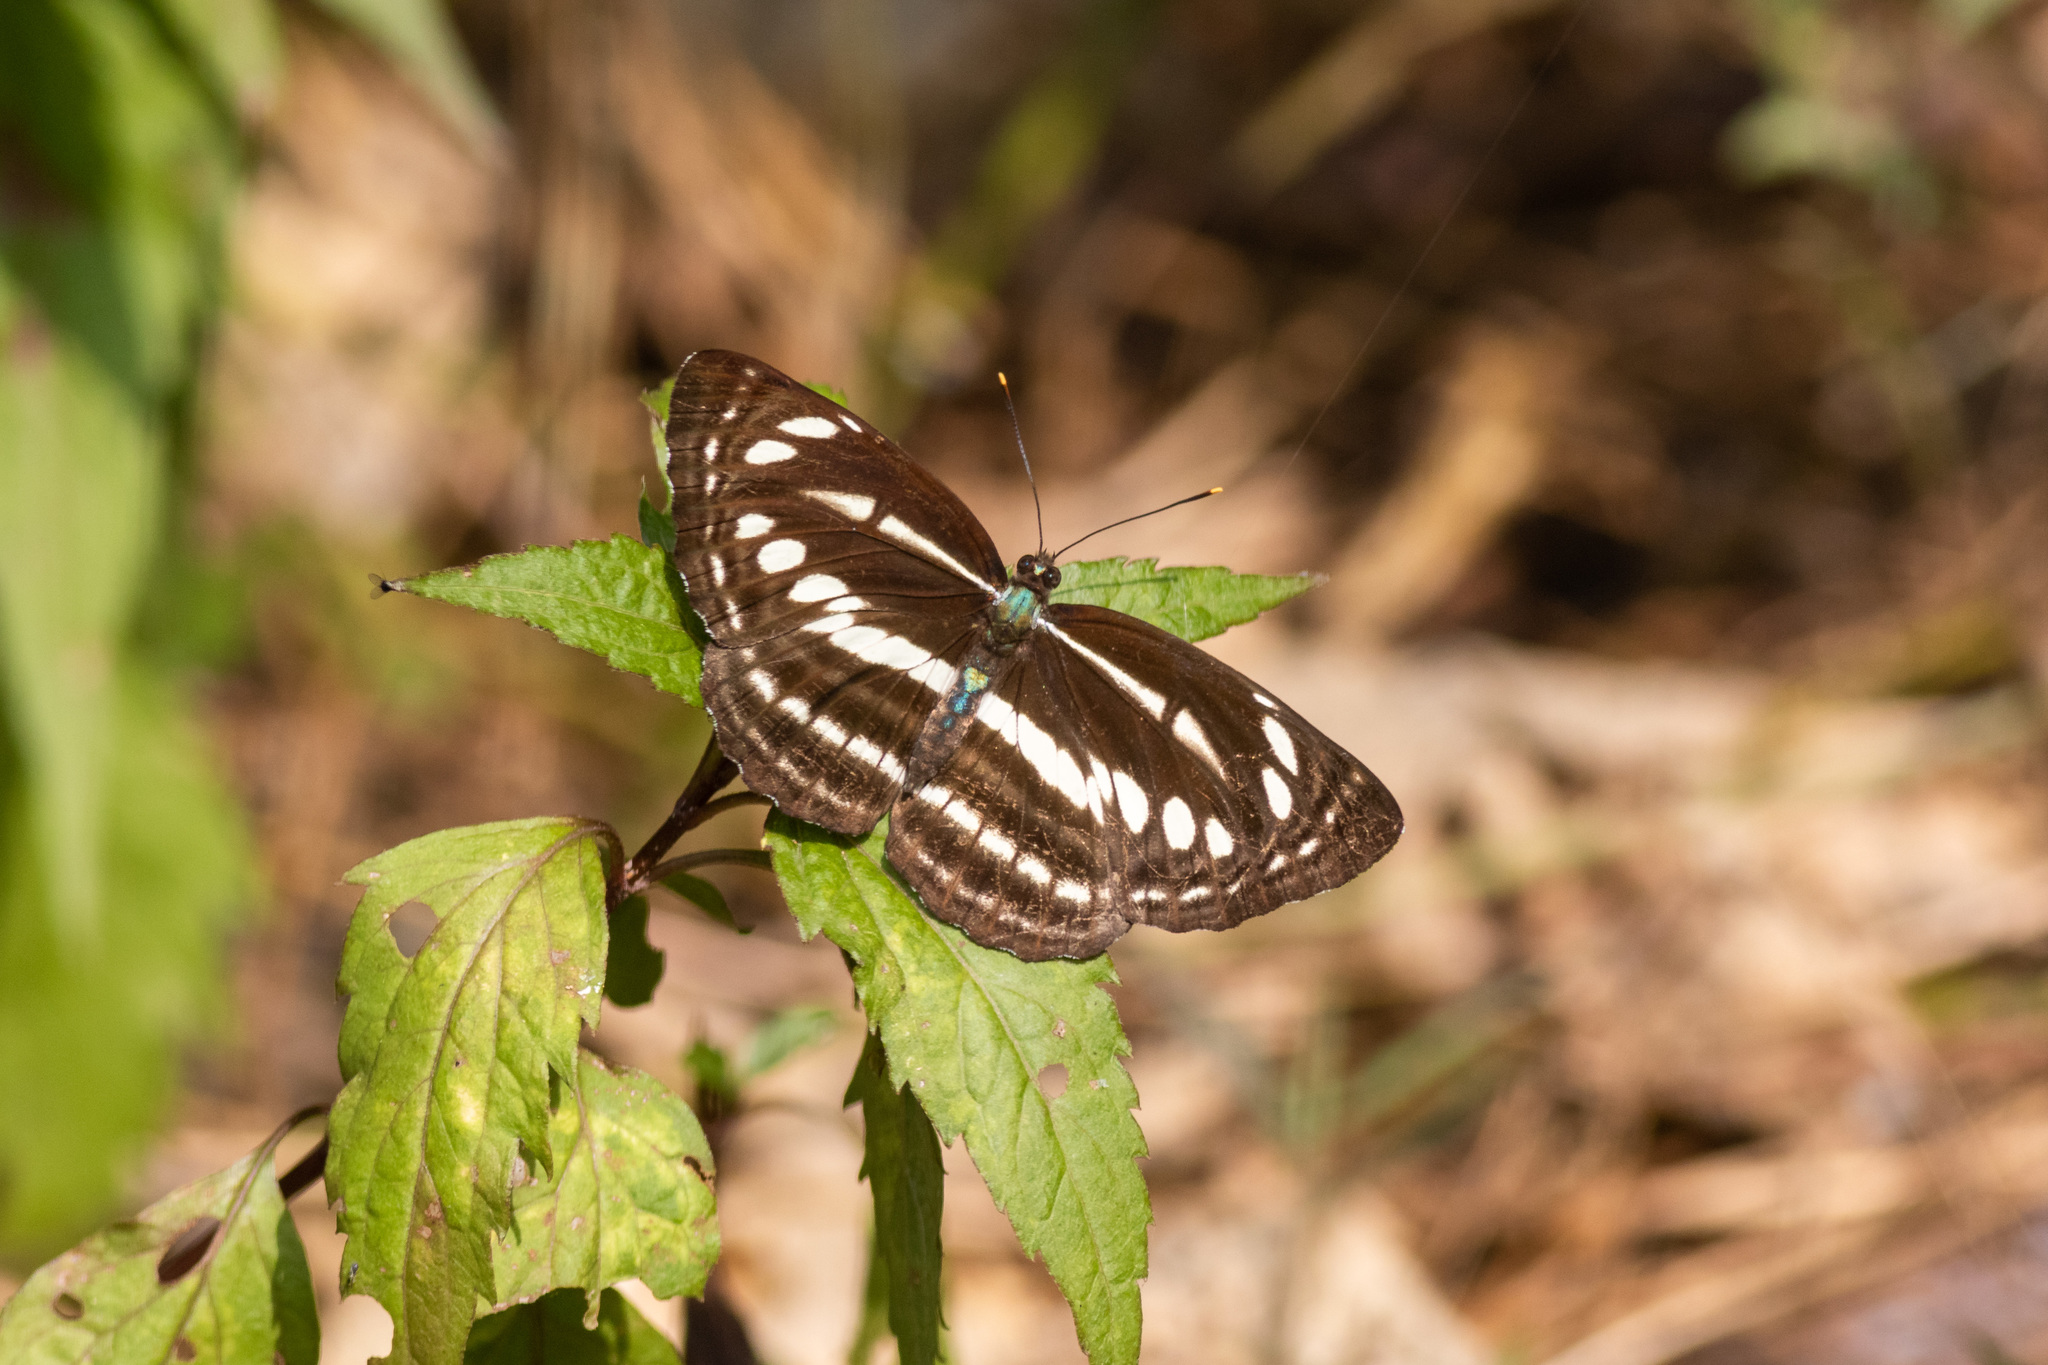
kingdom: Animalia
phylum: Arthropoda
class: Insecta
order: Lepidoptera
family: Nymphalidae
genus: Neptis
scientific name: Neptis hylas
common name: Common sailer
